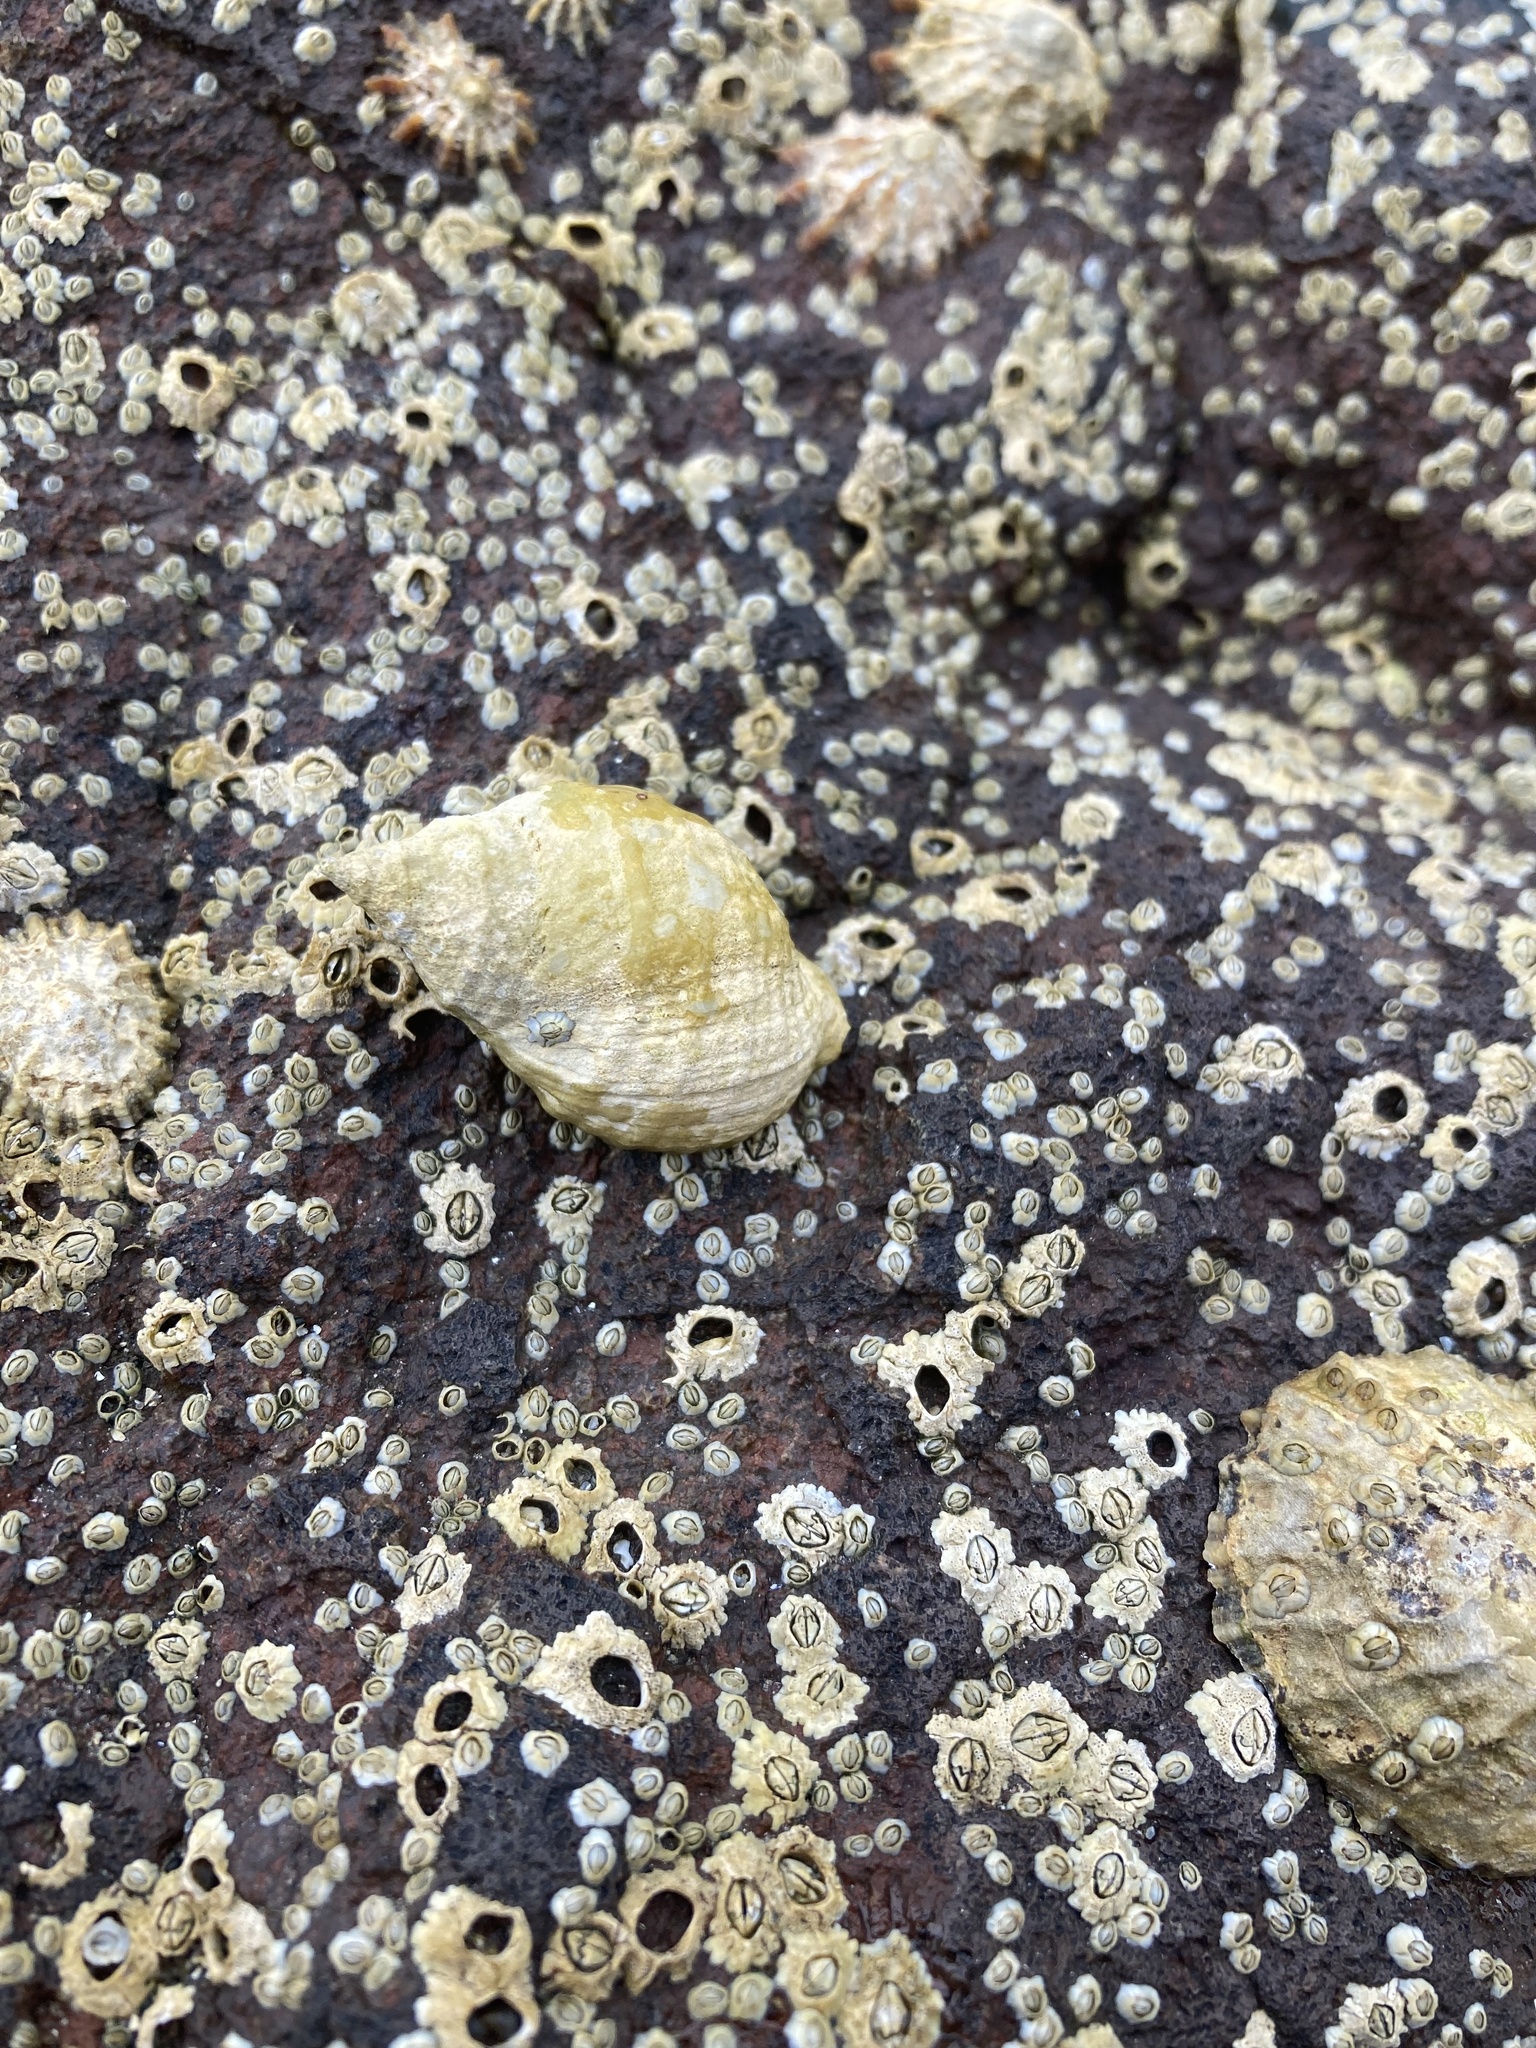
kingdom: Animalia
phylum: Mollusca
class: Gastropoda
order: Neogastropoda
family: Muricidae
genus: Nucella
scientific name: Nucella lapillus
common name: Dog whelk
